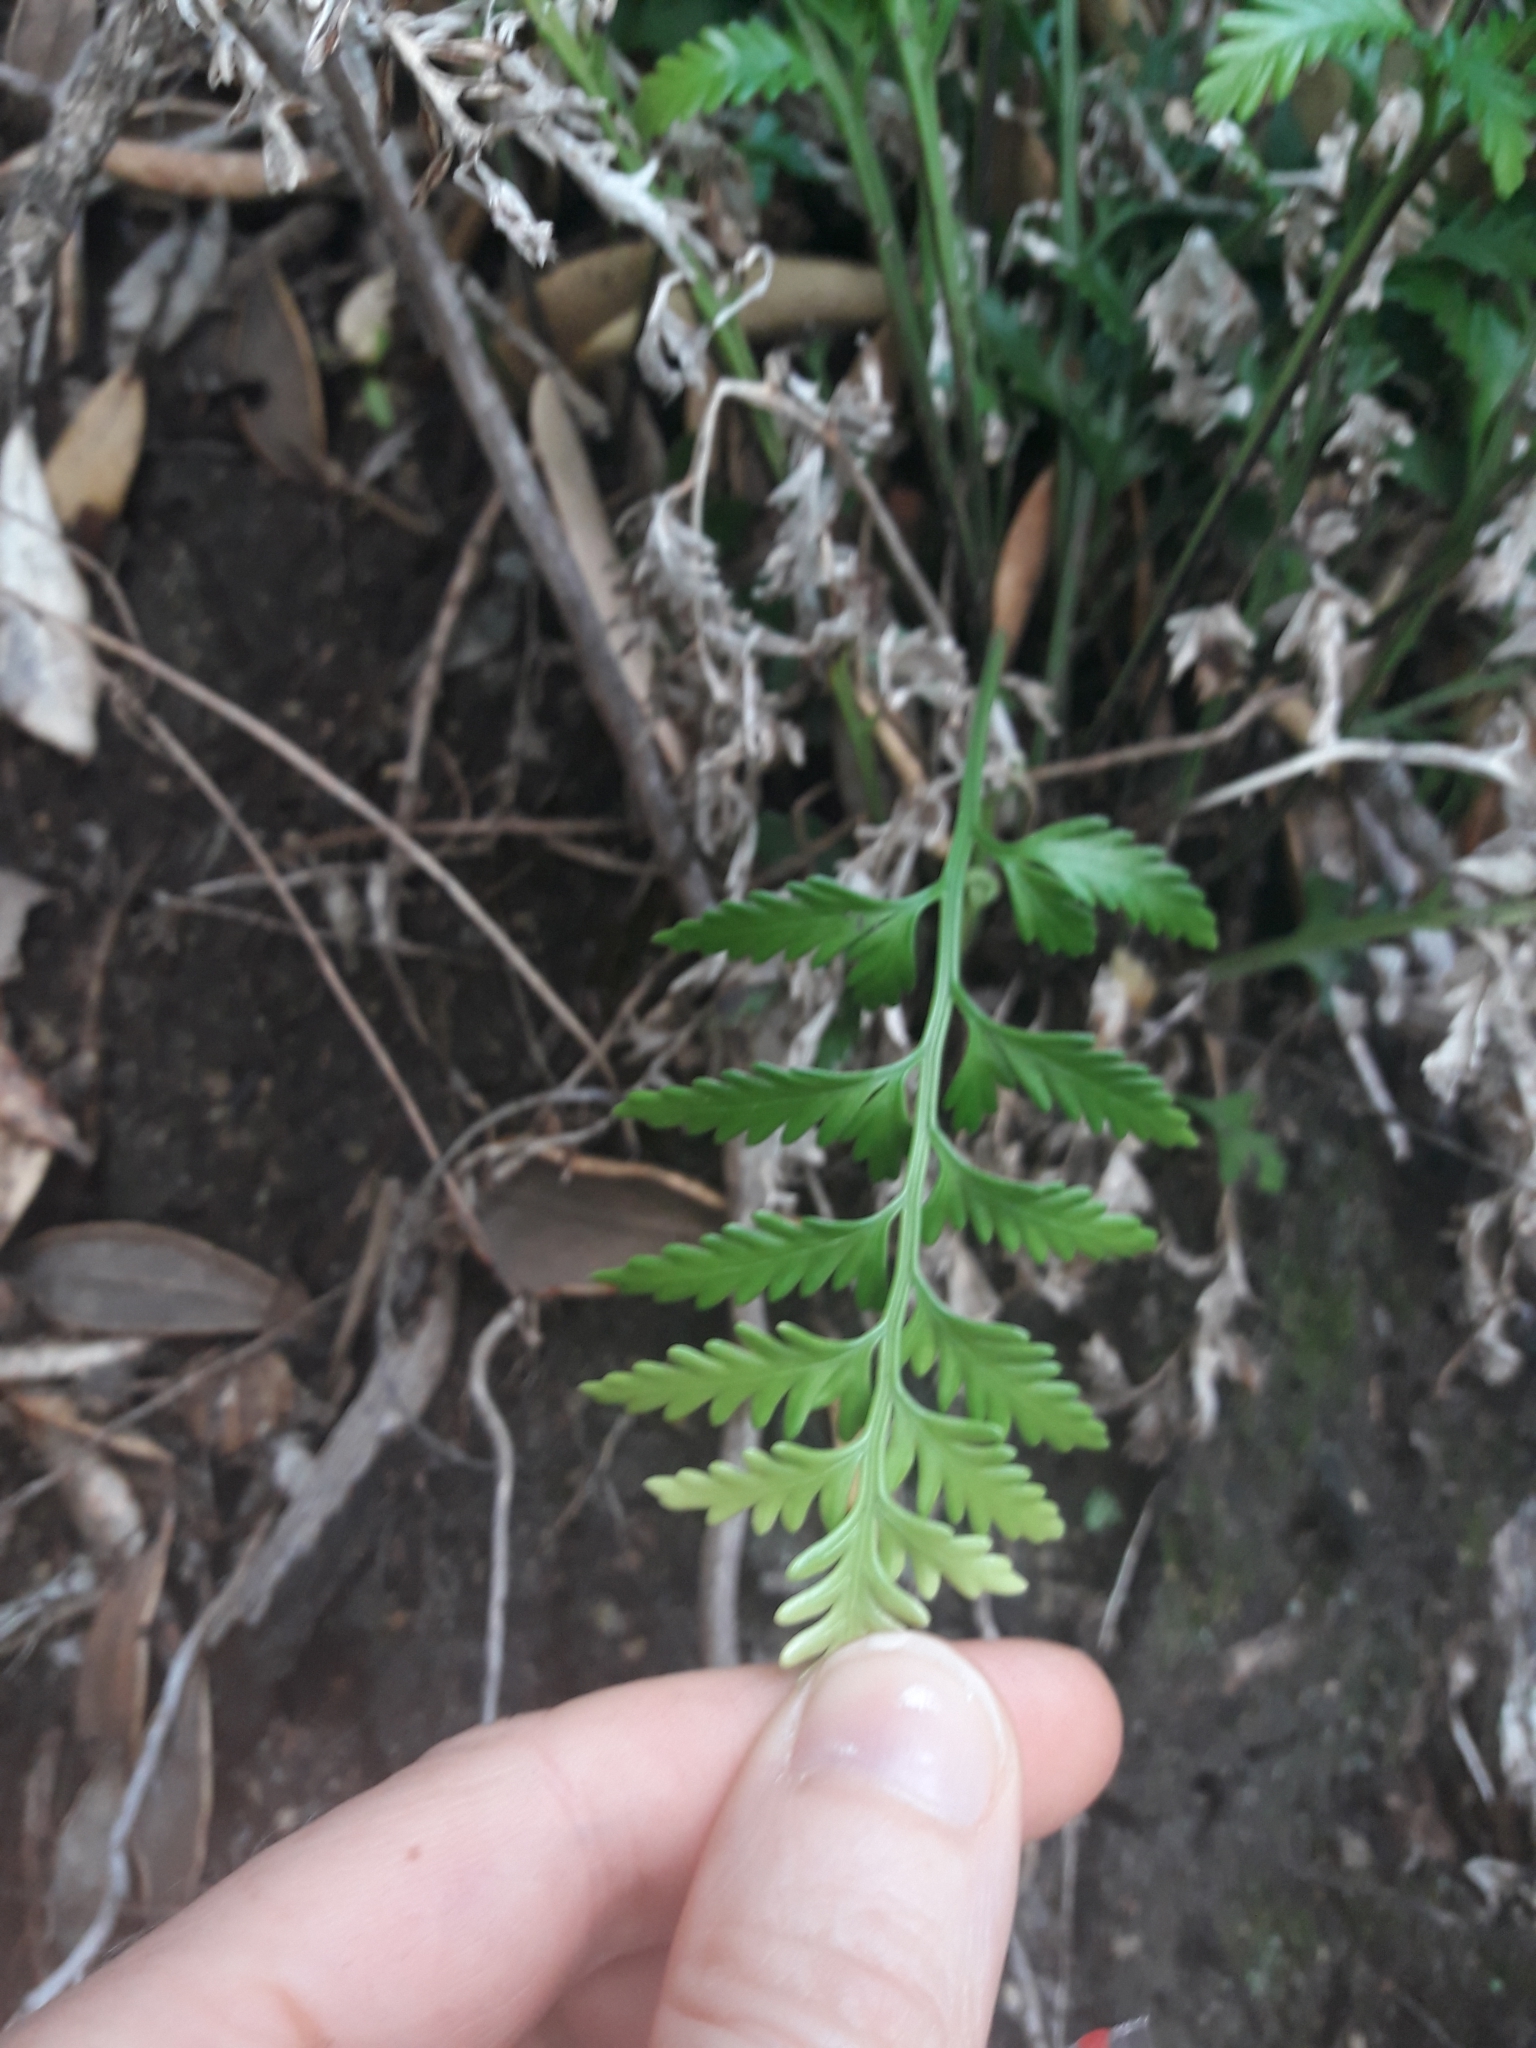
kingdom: Plantae
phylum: Tracheophyta
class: Polypodiopsida
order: Polypodiales
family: Aspleniaceae
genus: Asplenium
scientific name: Asplenium haurakiense
